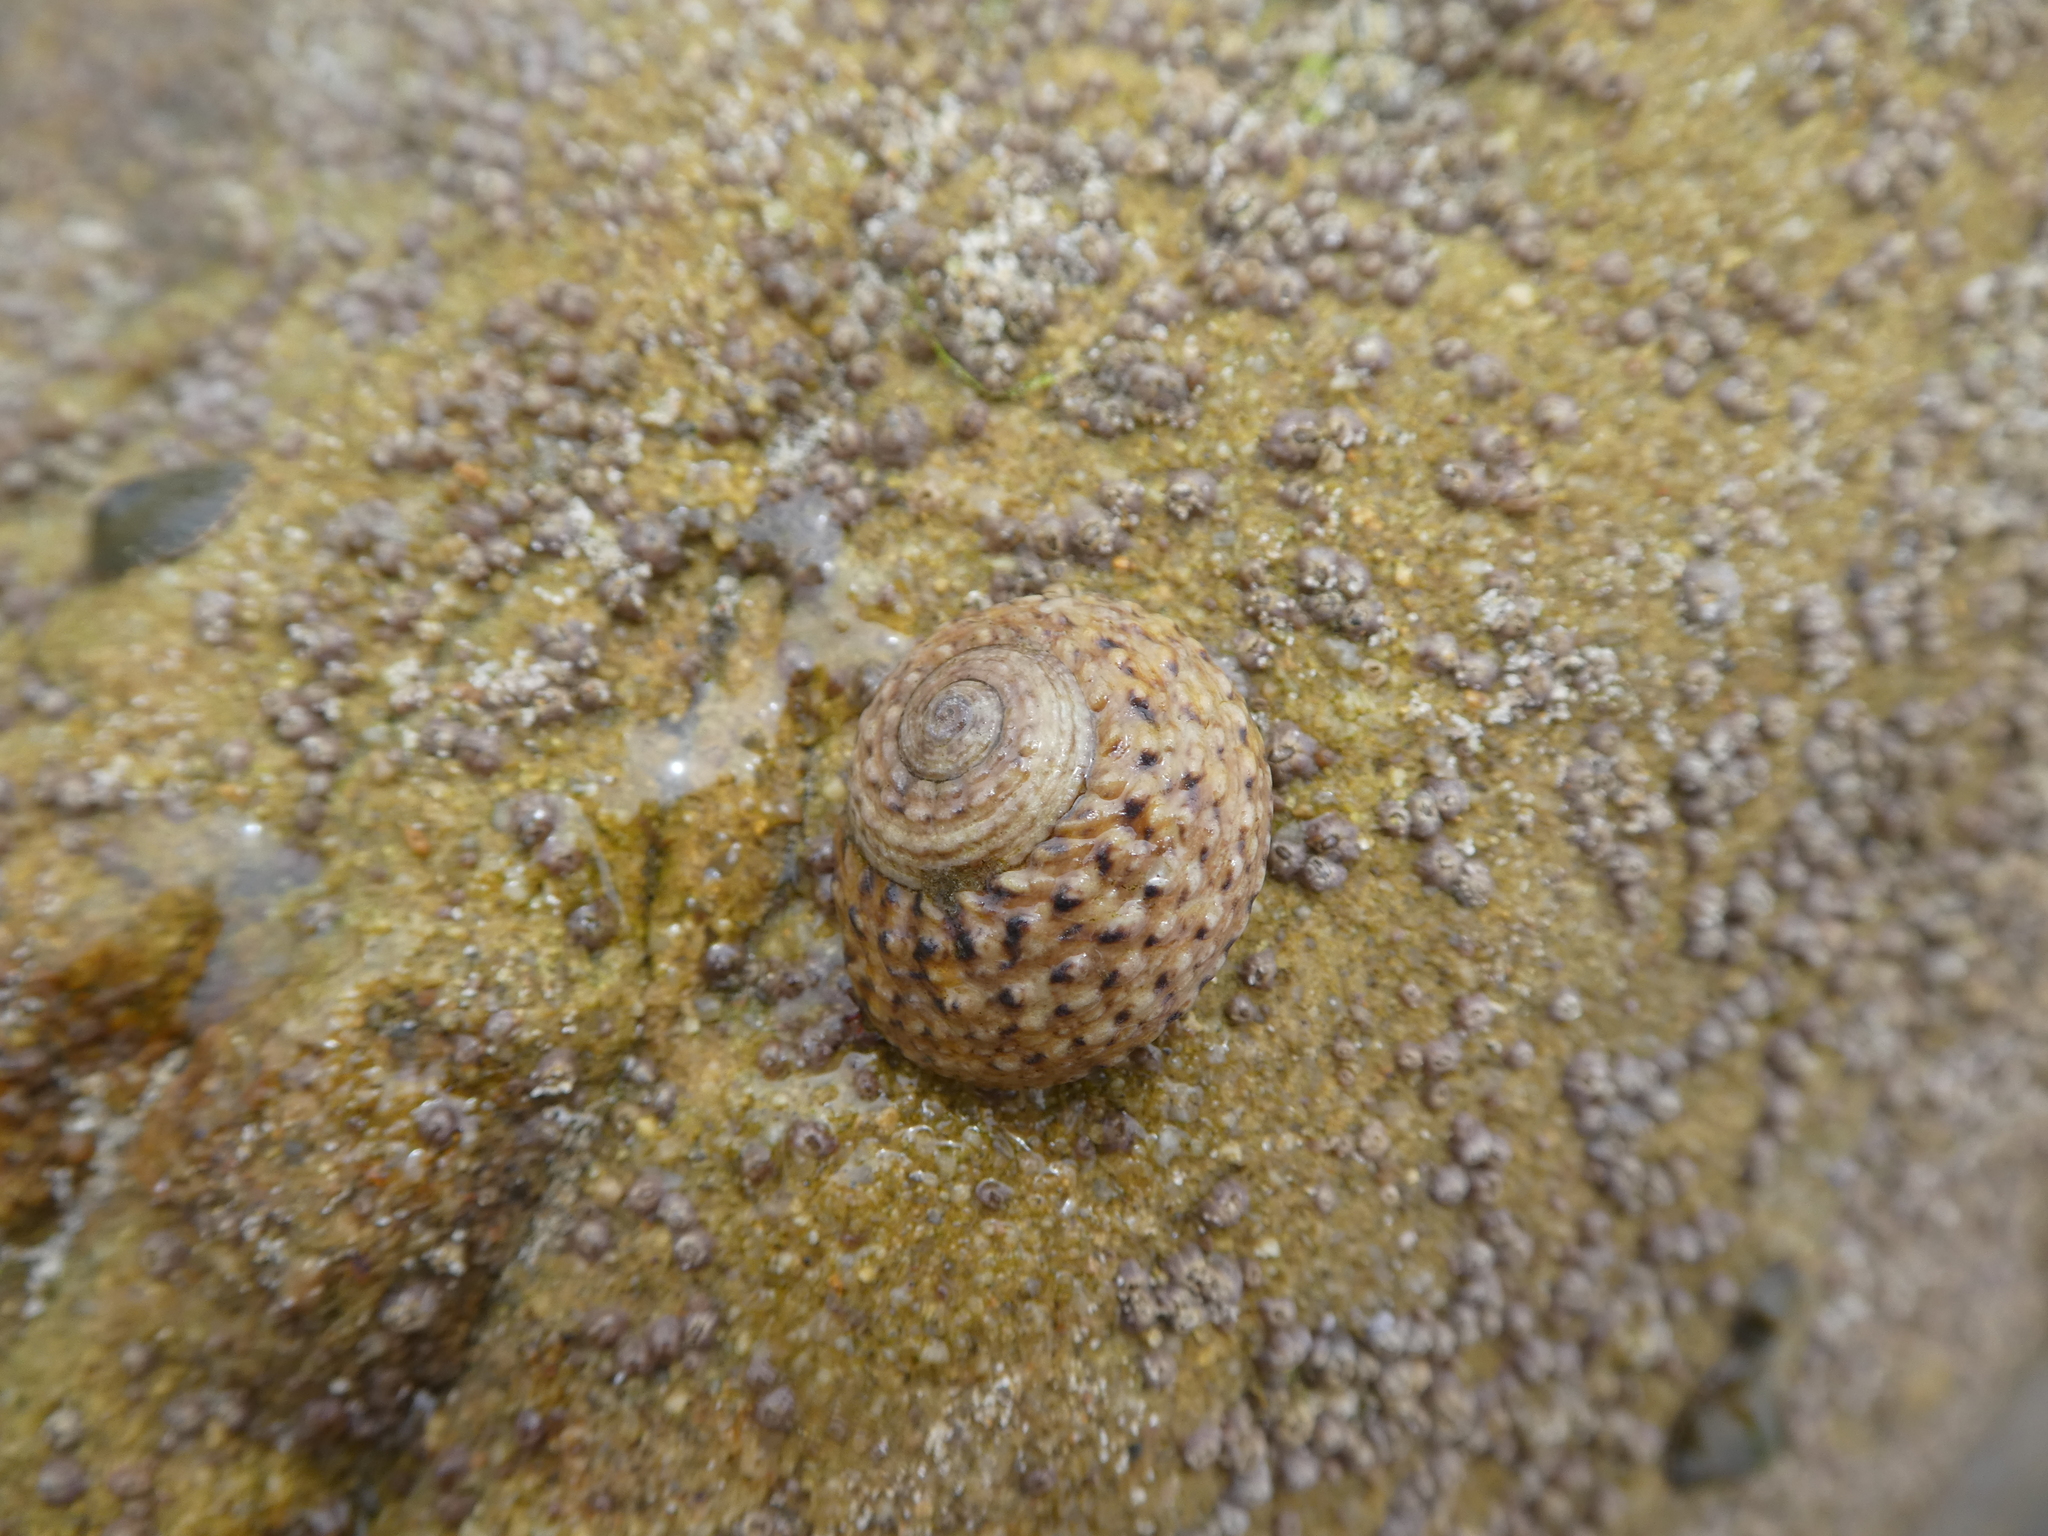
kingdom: Animalia
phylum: Mollusca
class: Gastropoda
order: Trochida
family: Tegulidae
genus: Tegula
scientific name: Tegula eiseni
